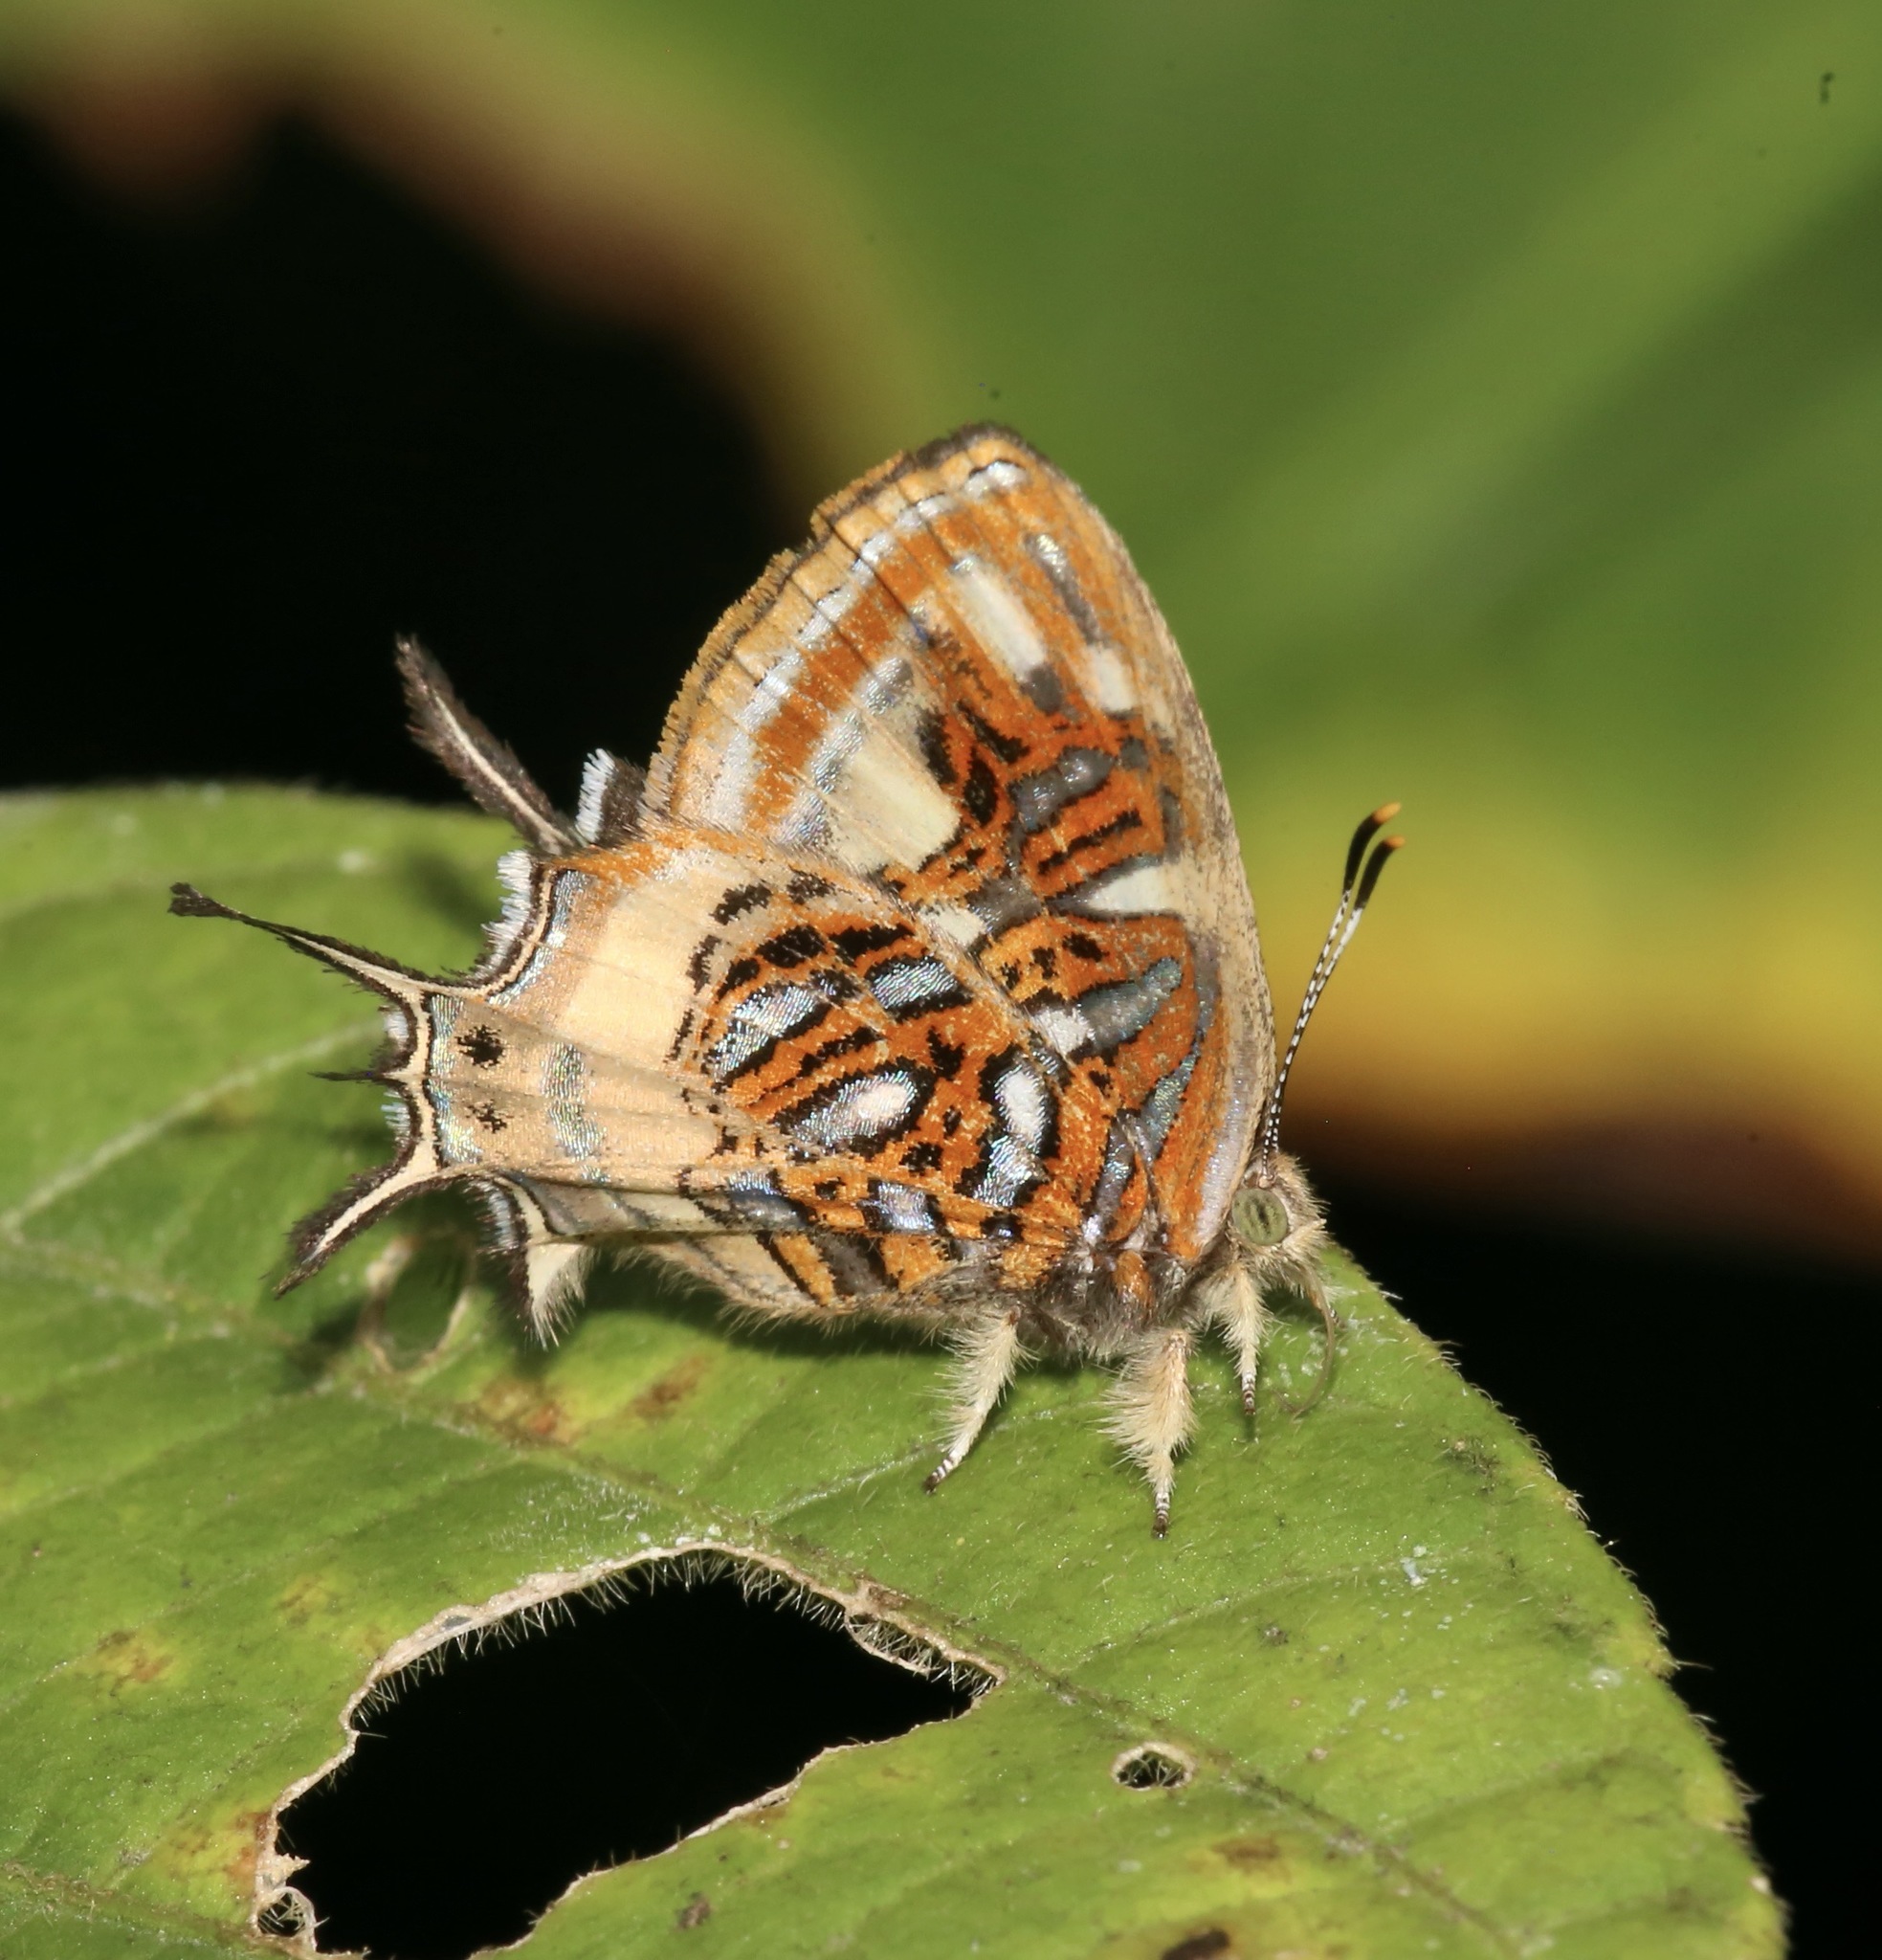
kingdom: Animalia
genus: Charis
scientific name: Charis chrysus
